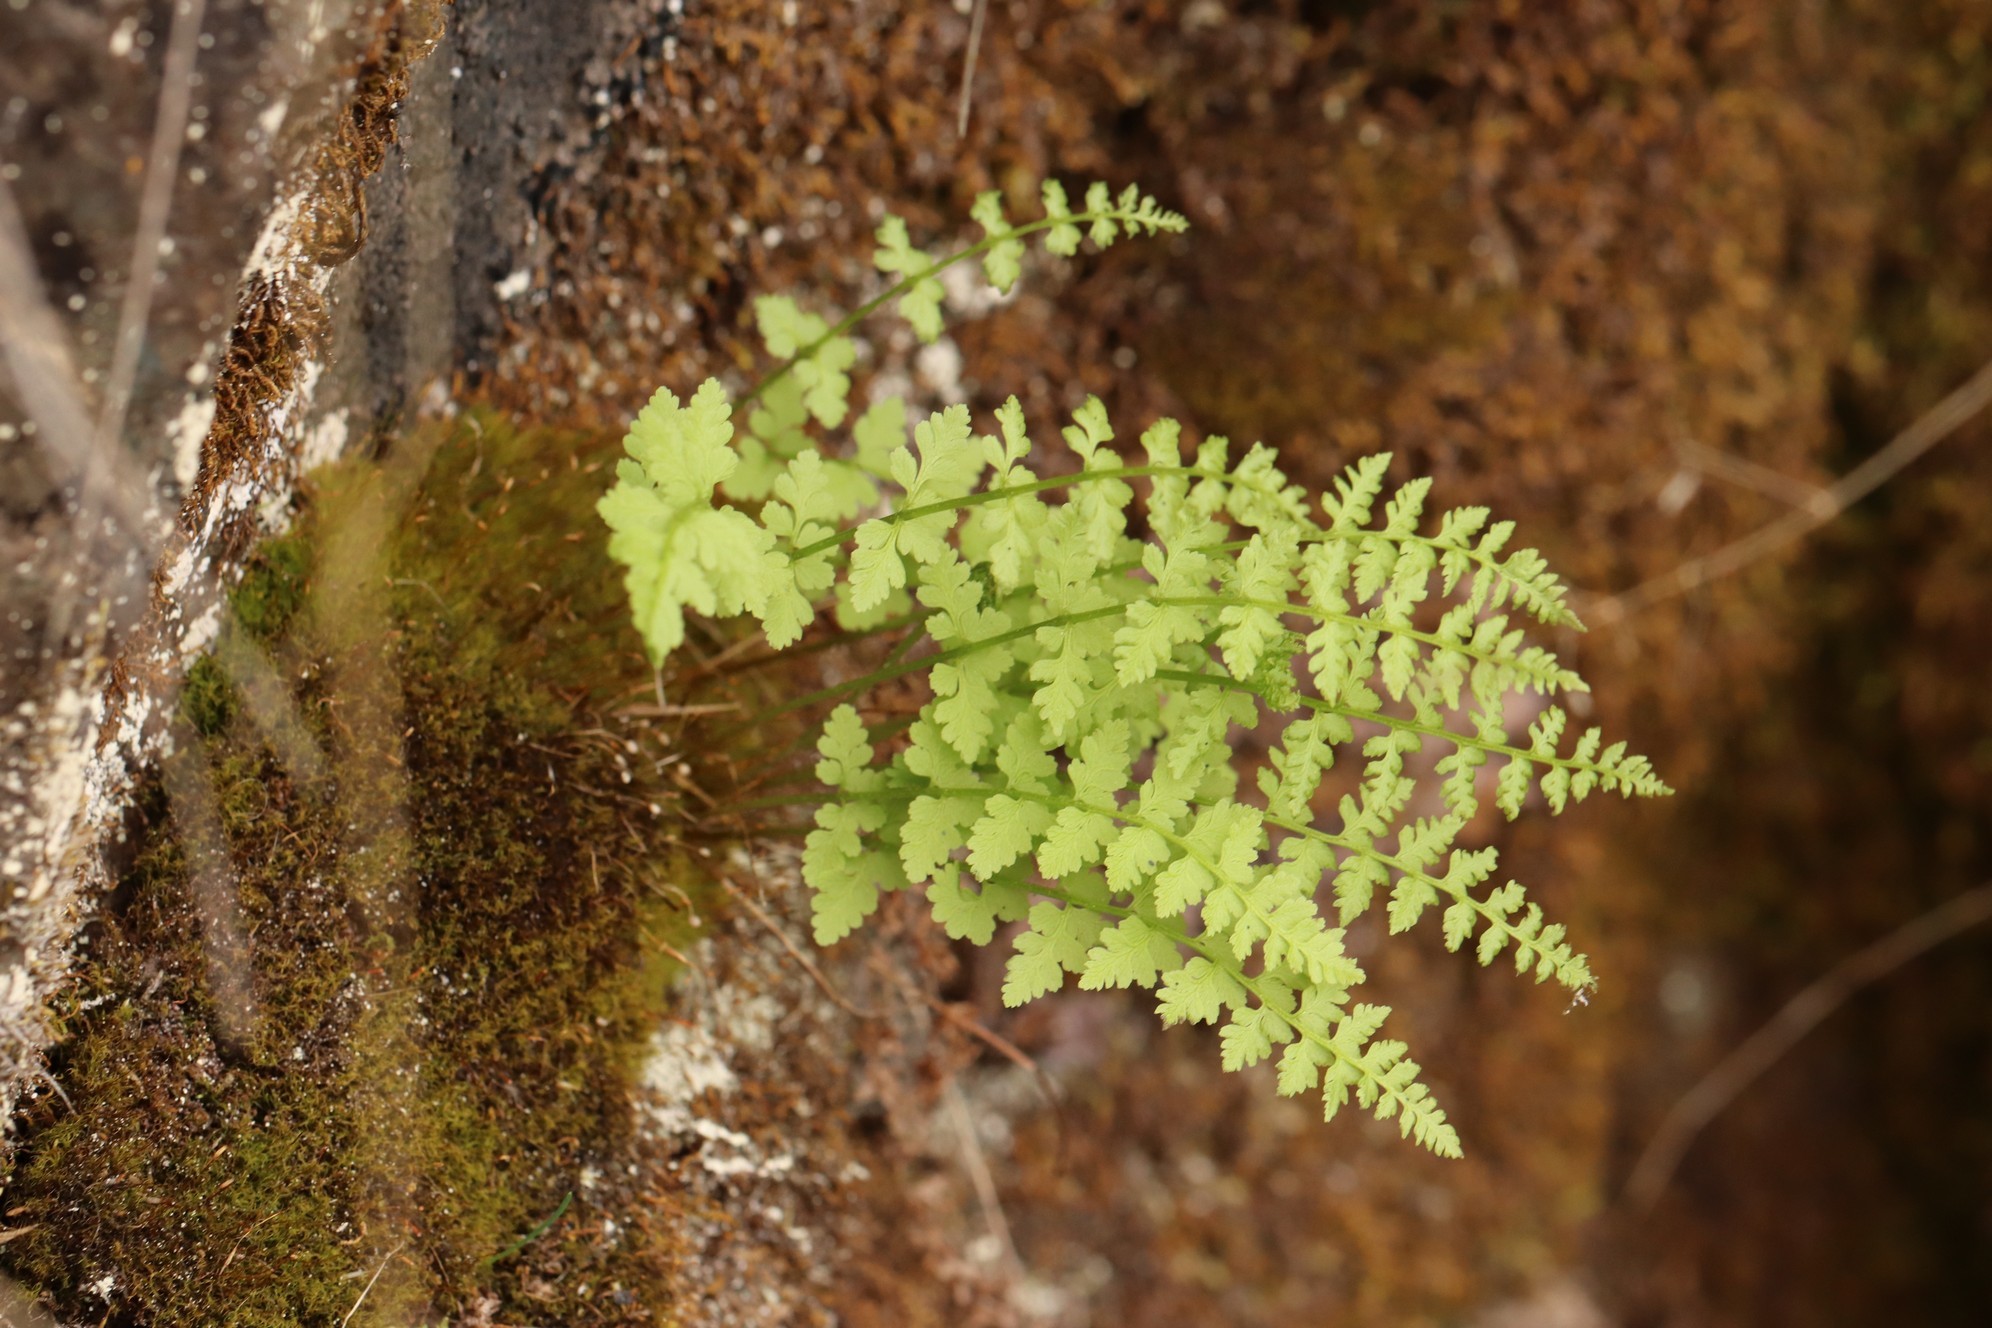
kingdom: Plantae
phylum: Tracheophyta
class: Polypodiopsida
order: Polypodiales
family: Cystopteridaceae
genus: Cystopteris
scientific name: Cystopteris fragilis
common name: Brittle bladder fern
